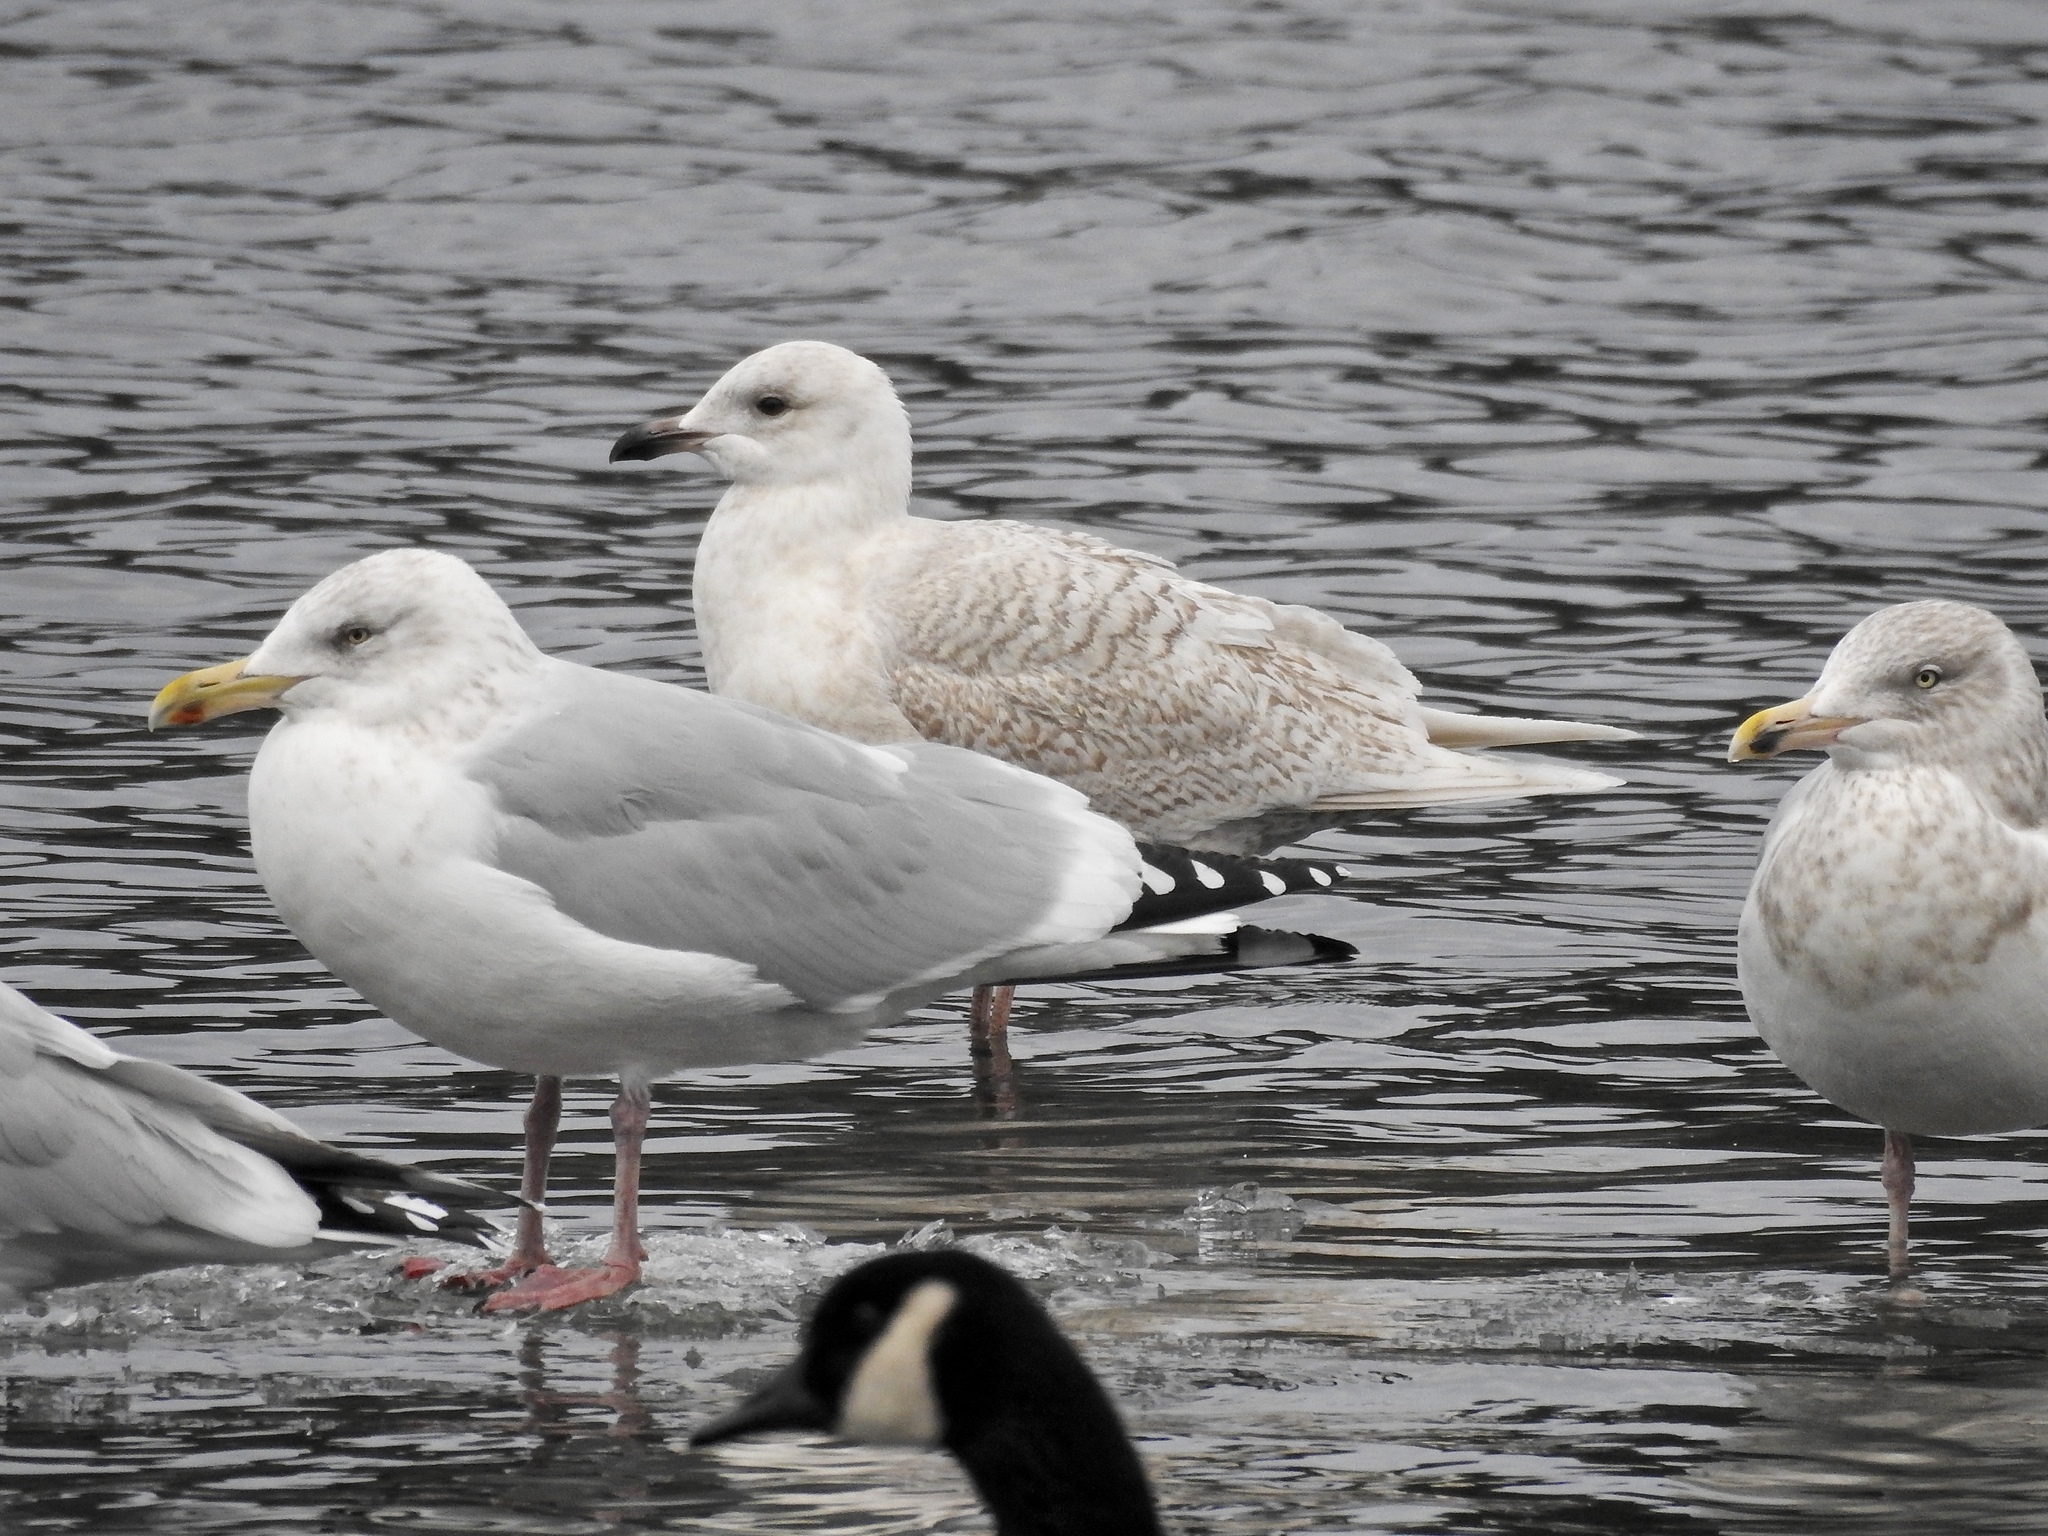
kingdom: Animalia
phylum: Chordata
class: Aves
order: Charadriiformes
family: Laridae
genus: Larus
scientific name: Larus glaucoides
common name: Iceland gull
